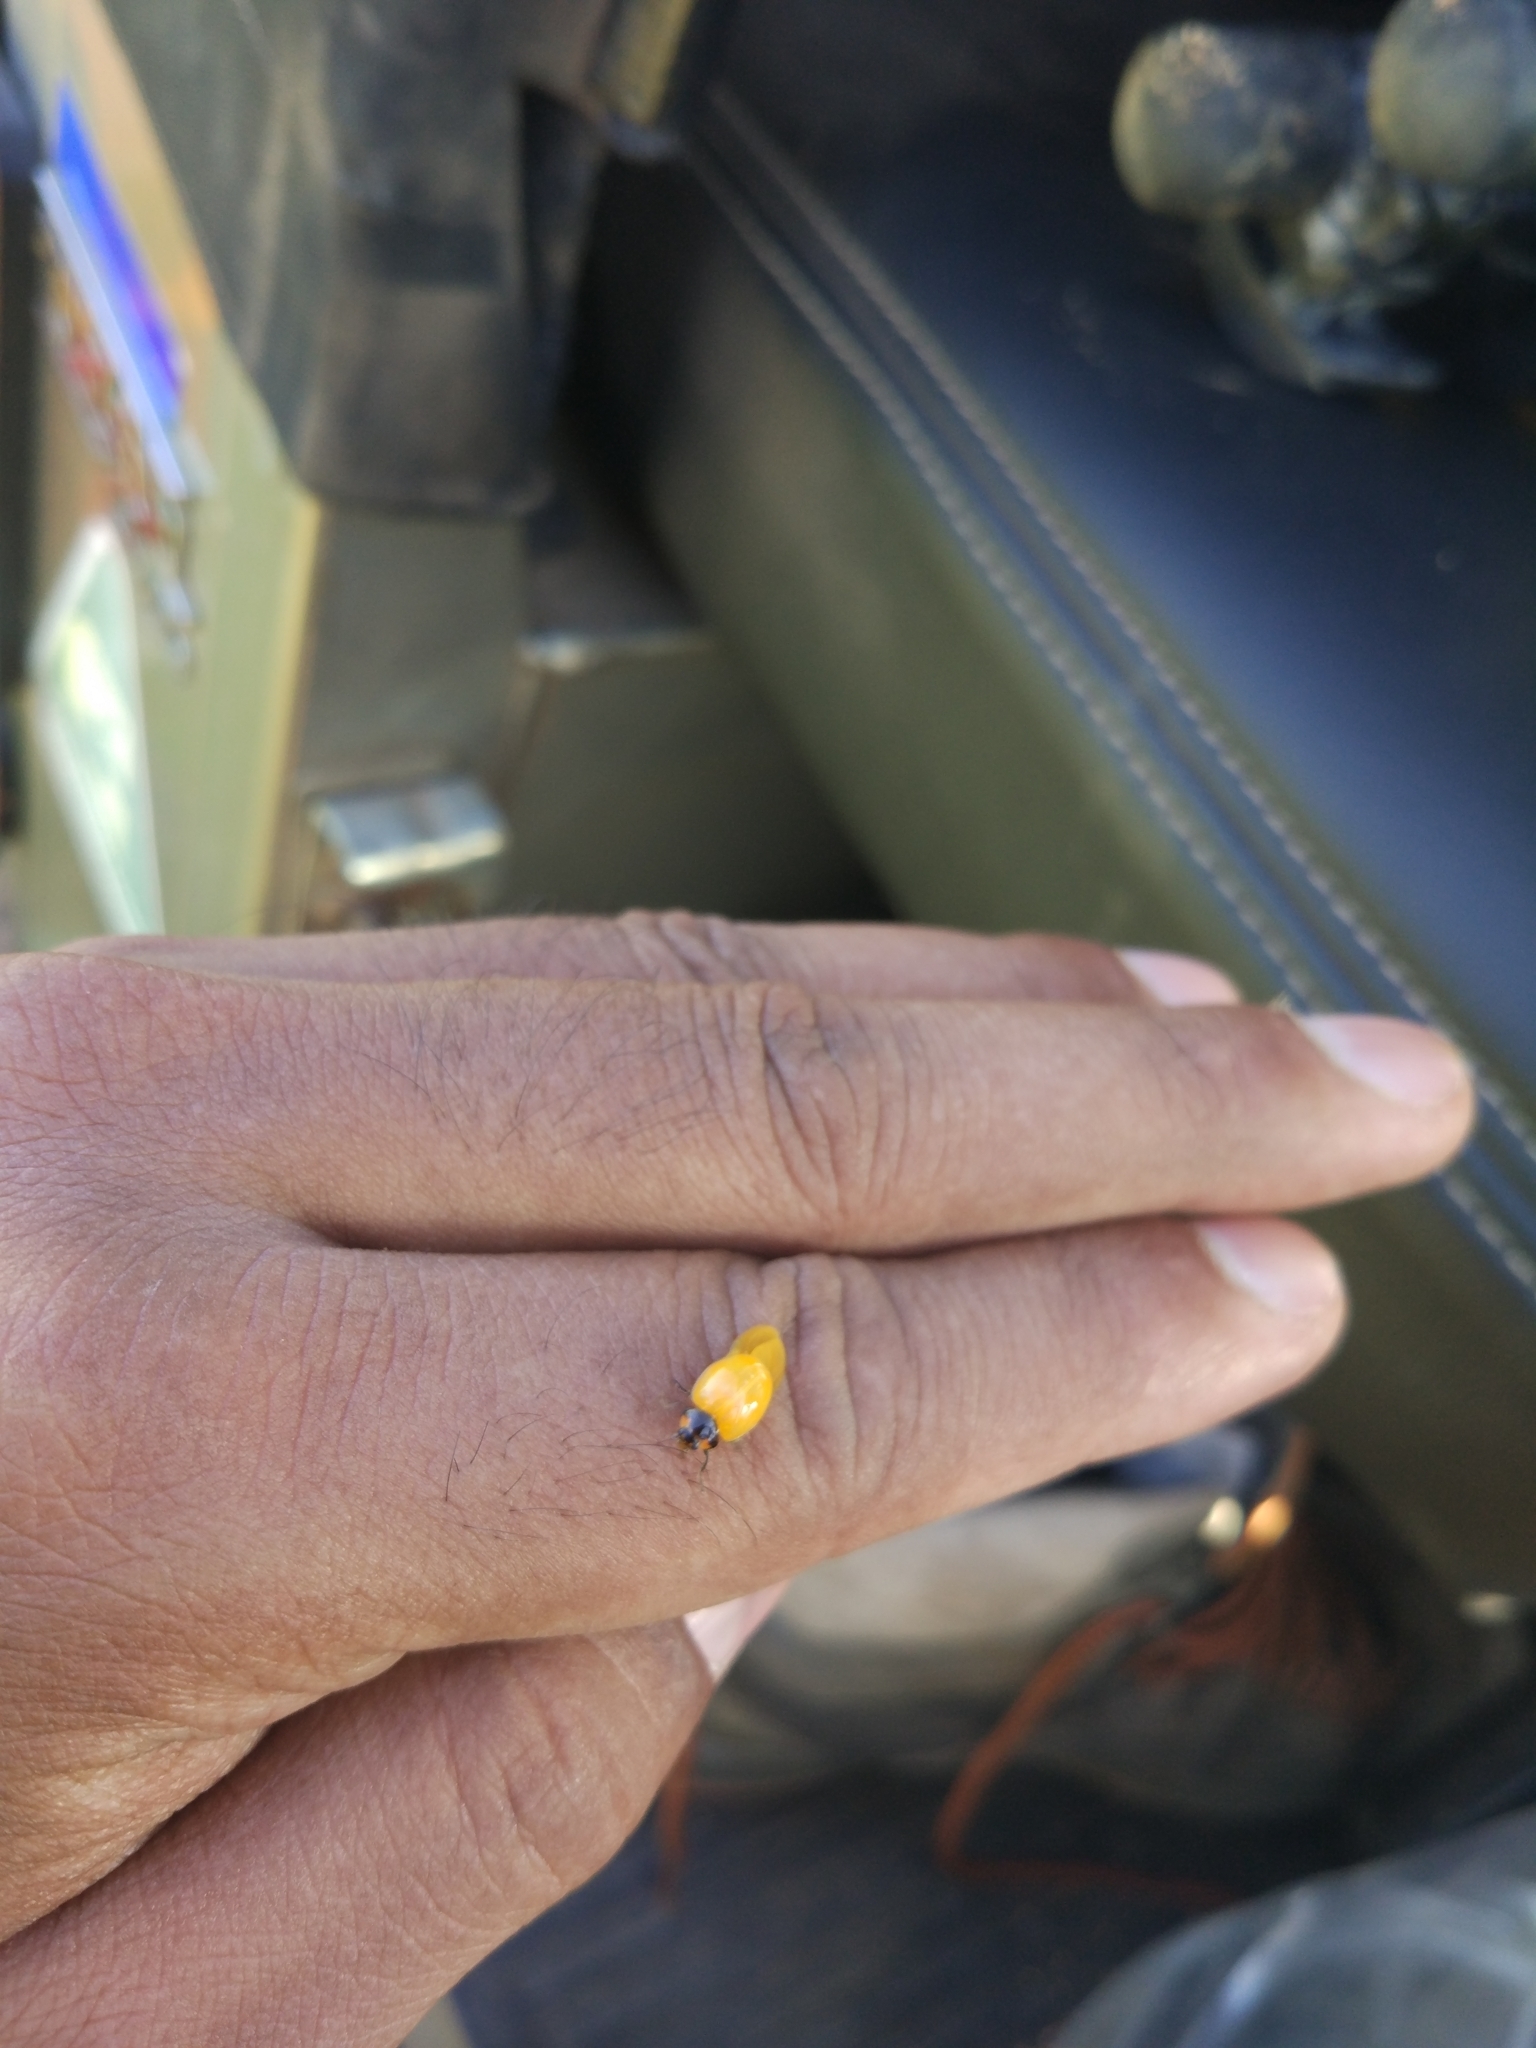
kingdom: Animalia
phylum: Arthropoda
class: Insecta
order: Coleoptera
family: Coccinellidae
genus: Coccinella
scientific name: Coccinella transversalis
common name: Transverse lady beetle
